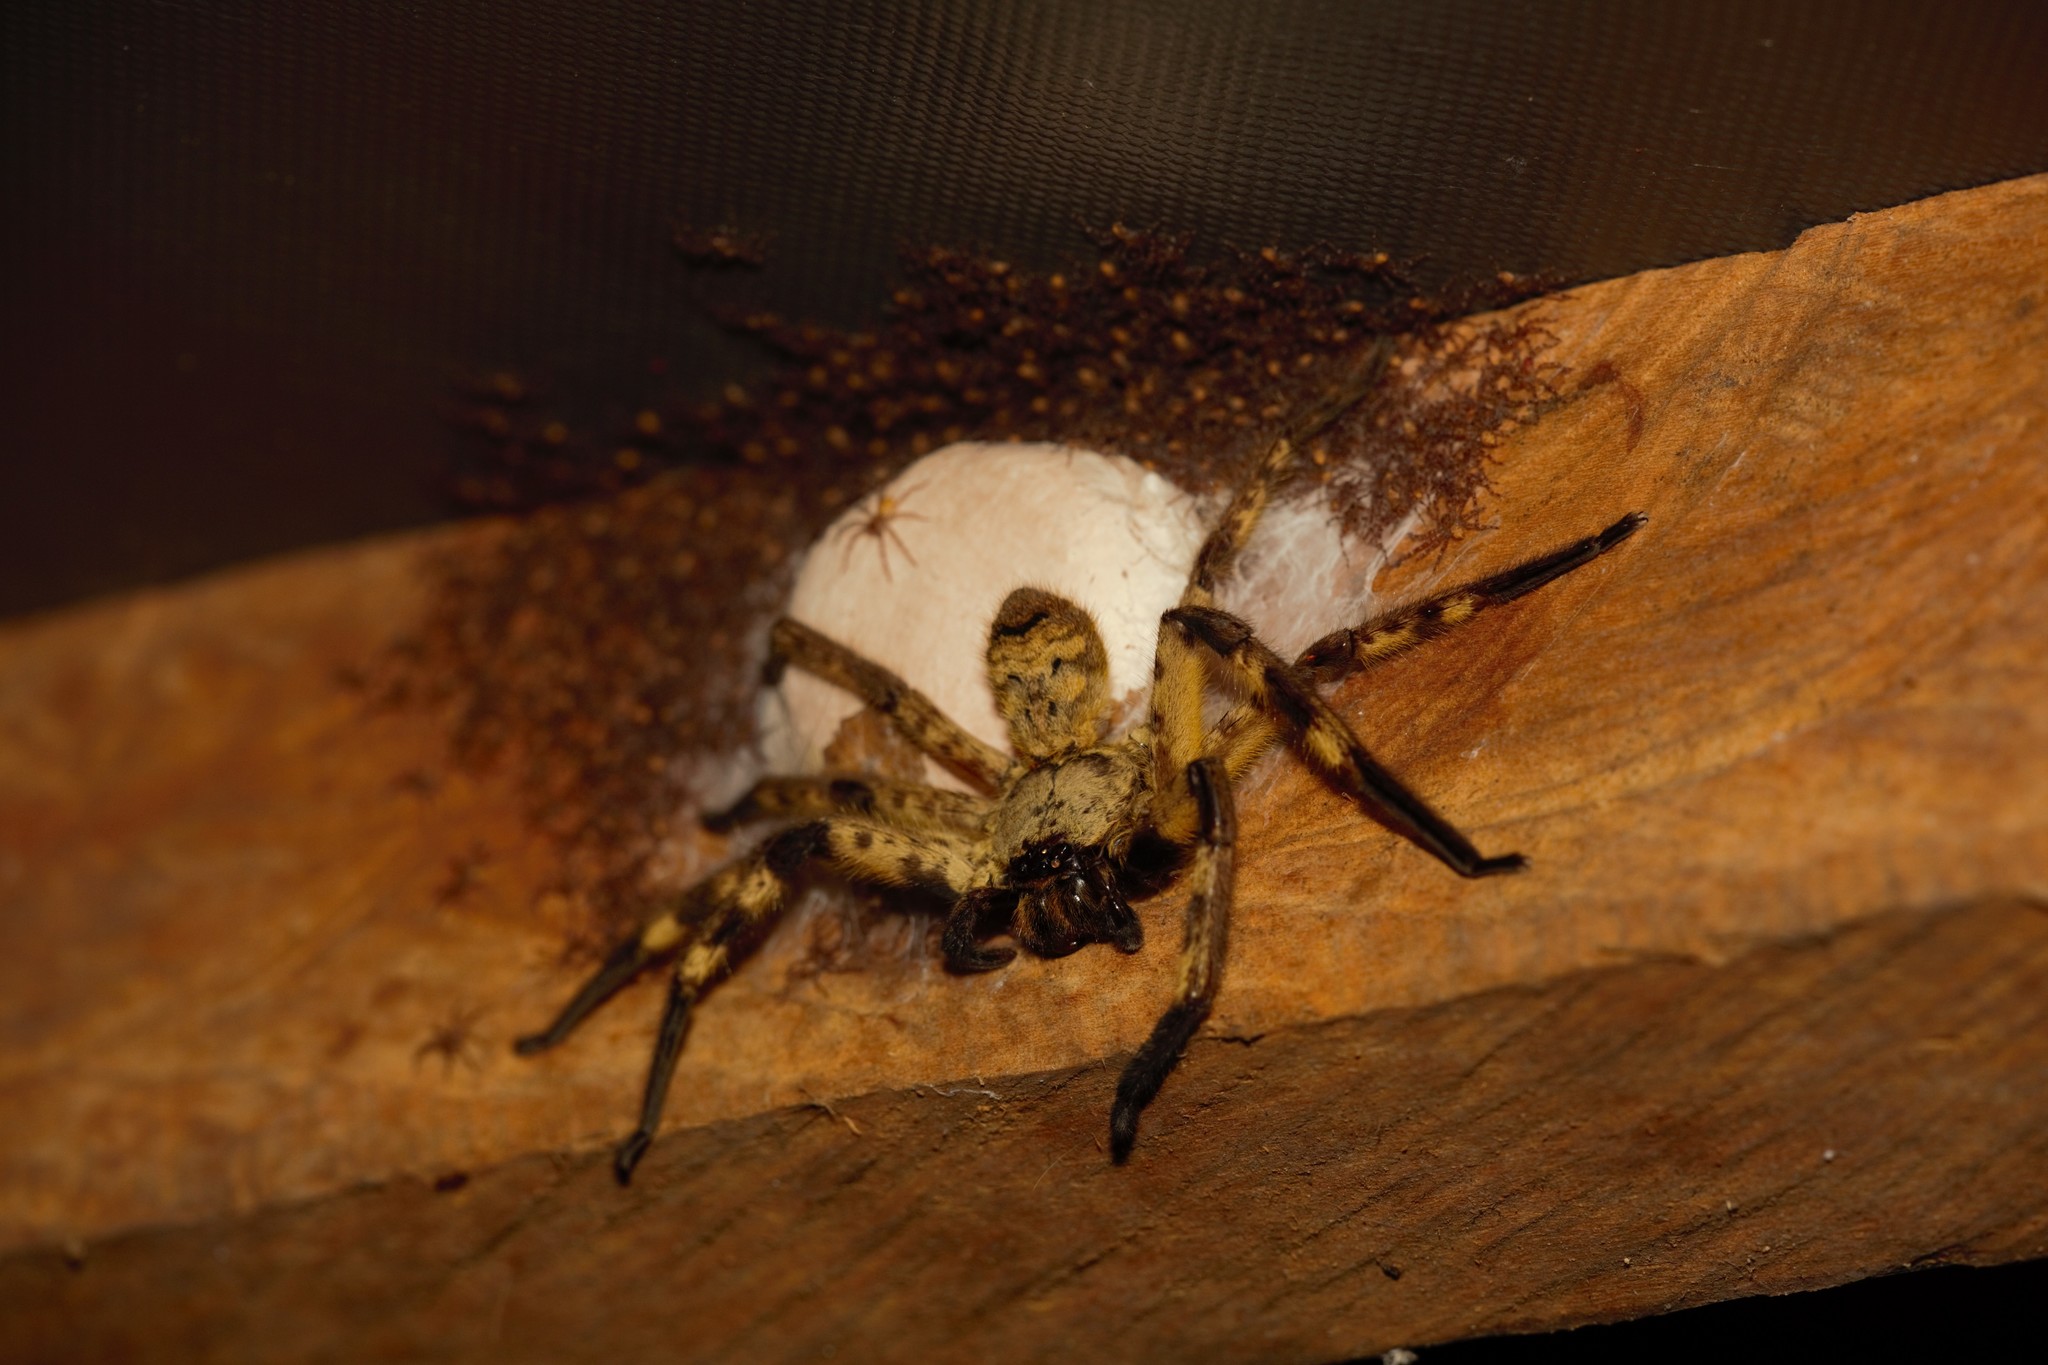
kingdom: Animalia
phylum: Arthropoda
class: Arachnida
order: Araneae
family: Sparassidae
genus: Barylestis
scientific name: Barylestis scutatus
